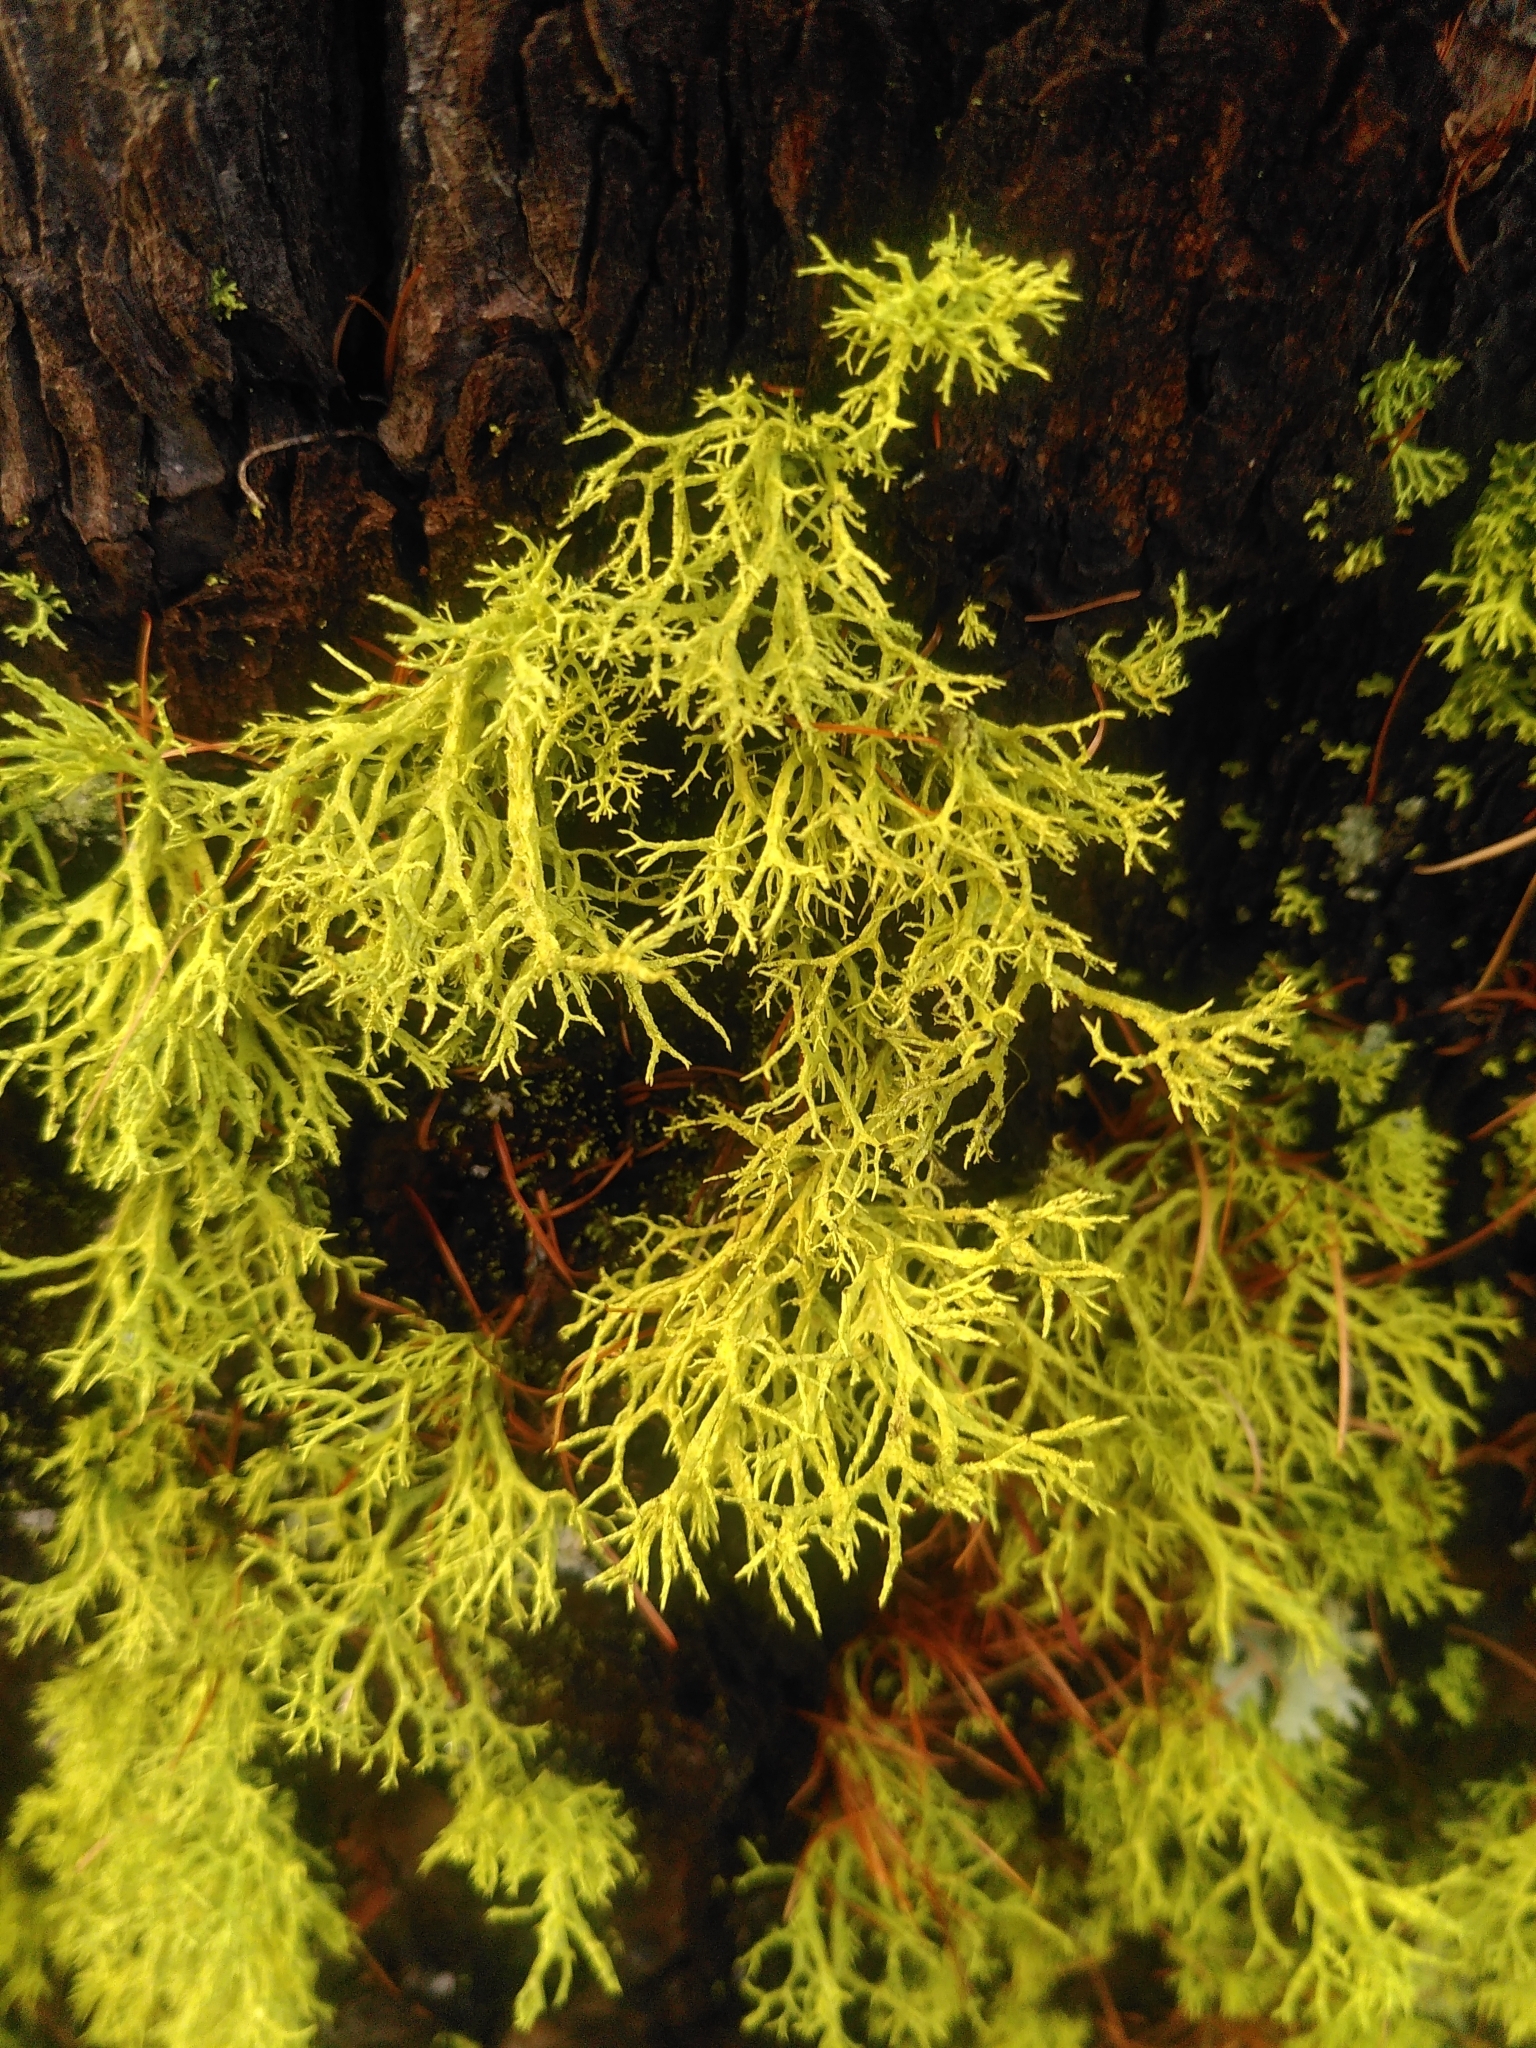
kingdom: Fungi
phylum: Ascomycota
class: Lecanoromycetes
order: Lecanorales
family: Parmeliaceae
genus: Letharia
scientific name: Letharia vulpina
